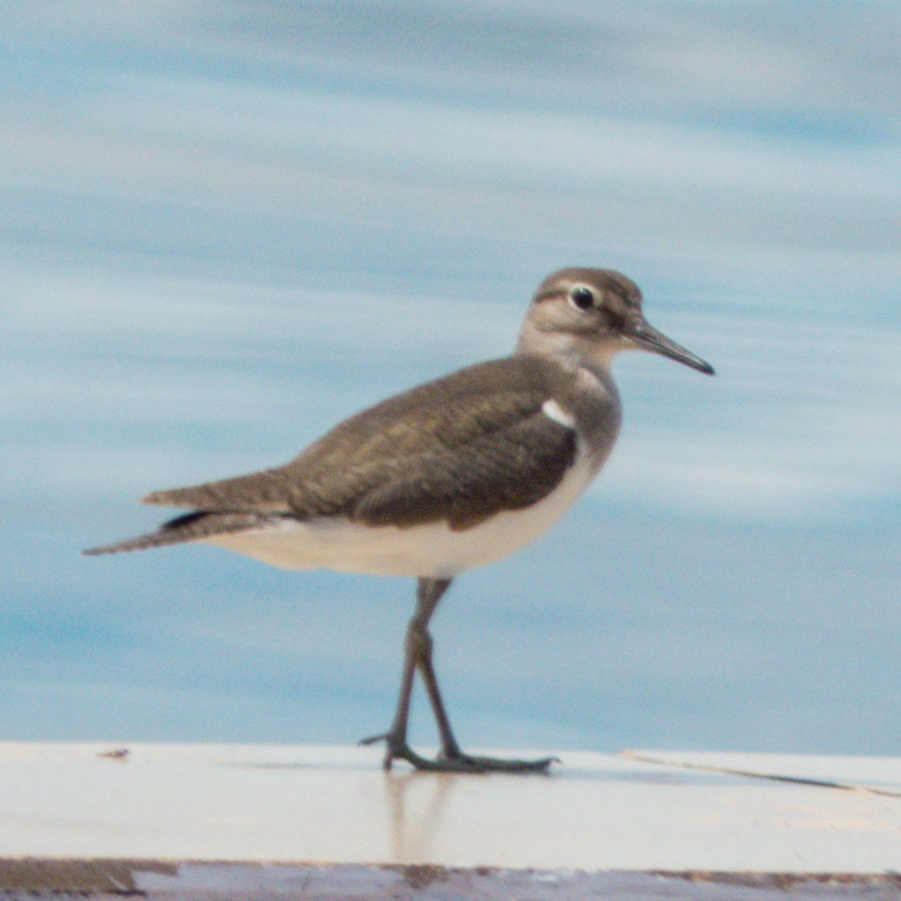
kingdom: Animalia
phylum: Chordata
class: Aves
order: Charadriiformes
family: Scolopacidae
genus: Actitis
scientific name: Actitis hypoleucos
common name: Common sandpiper
